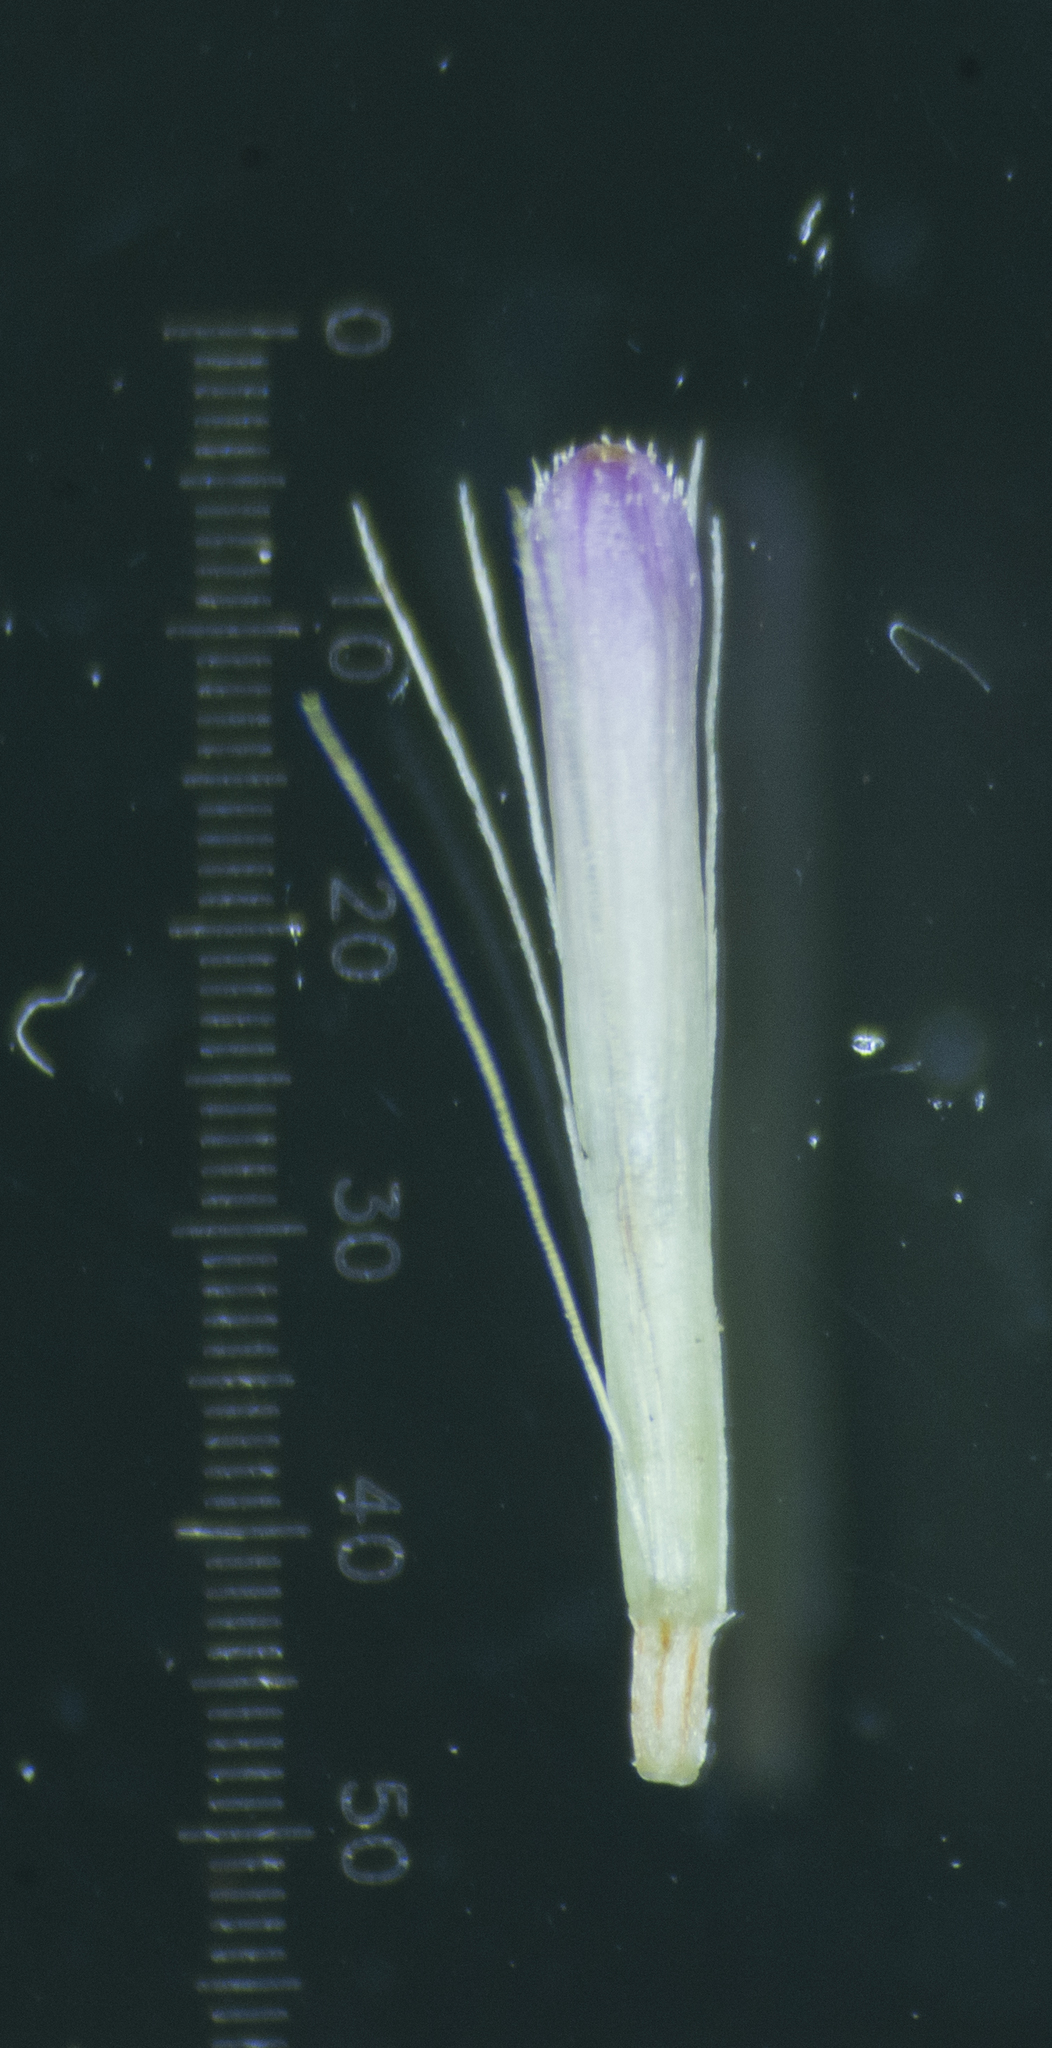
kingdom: Plantae
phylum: Tracheophyta
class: Magnoliopsida
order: Asterales
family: Asteraceae
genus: Blumea
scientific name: Blumea obliqua
